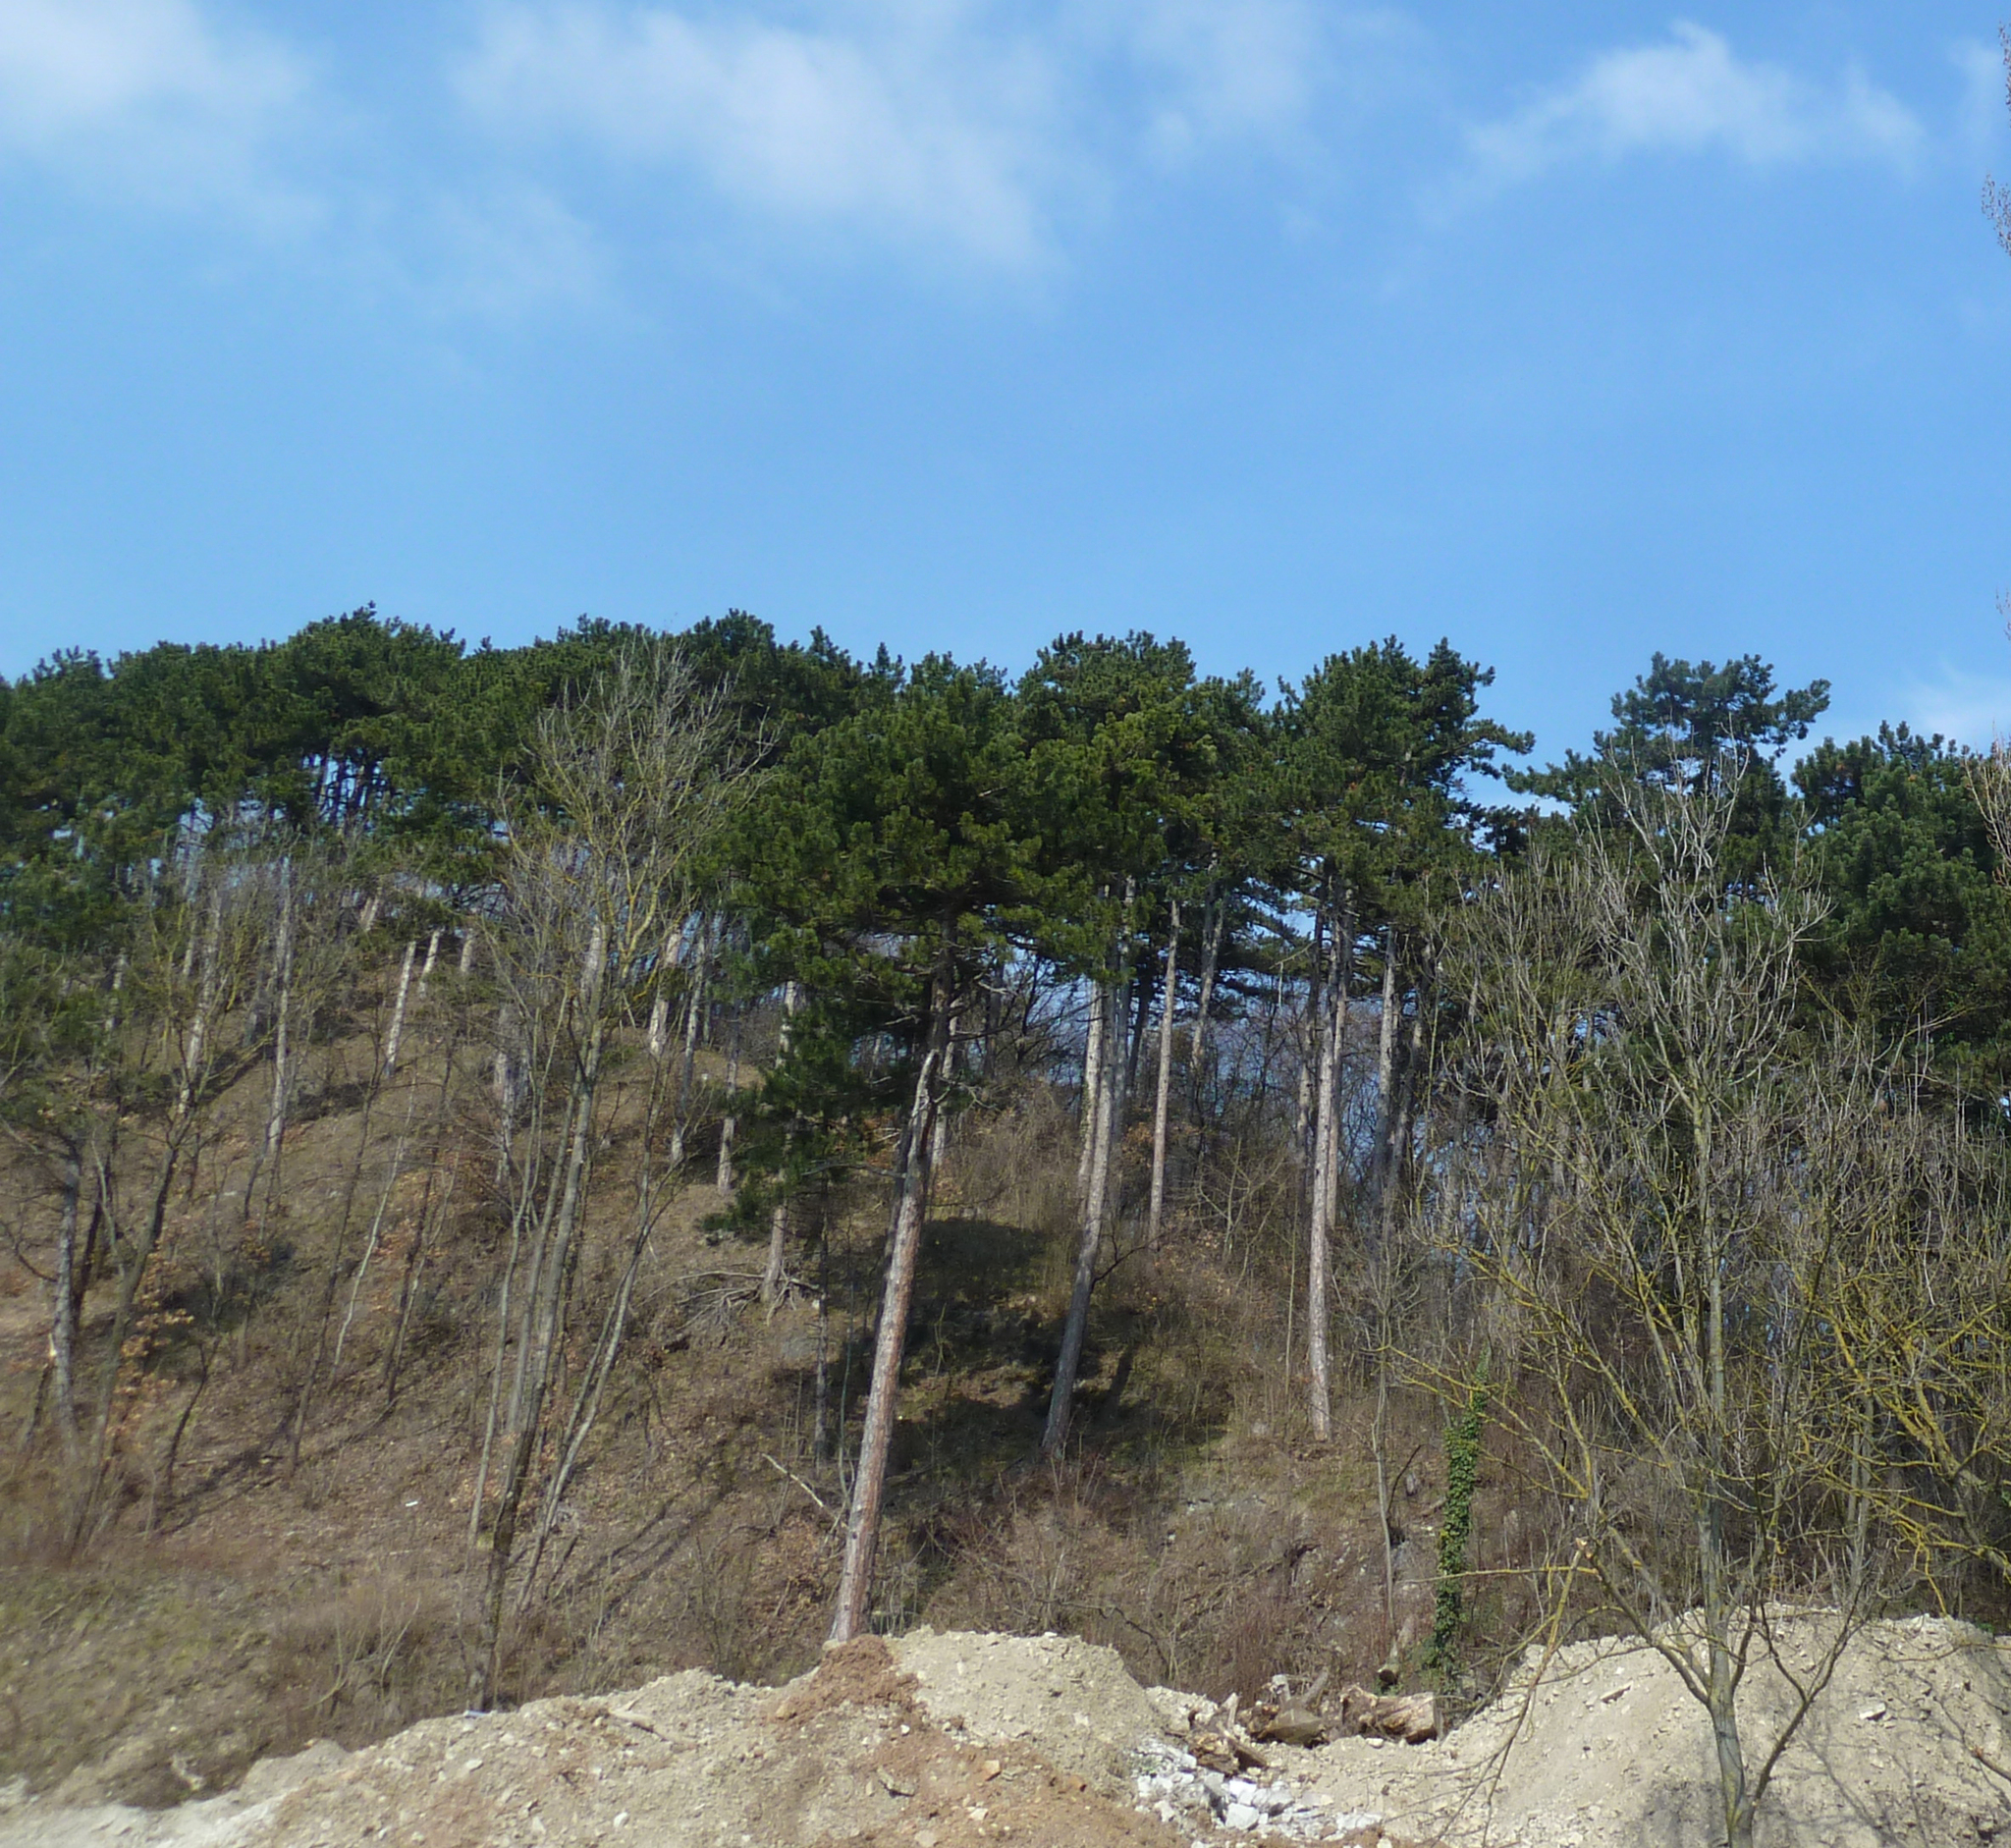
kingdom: Plantae
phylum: Tracheophyta
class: Pinopsida
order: Pinales
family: Pinaceae
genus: Pinus
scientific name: Pinus nigra
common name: Austrian pine
